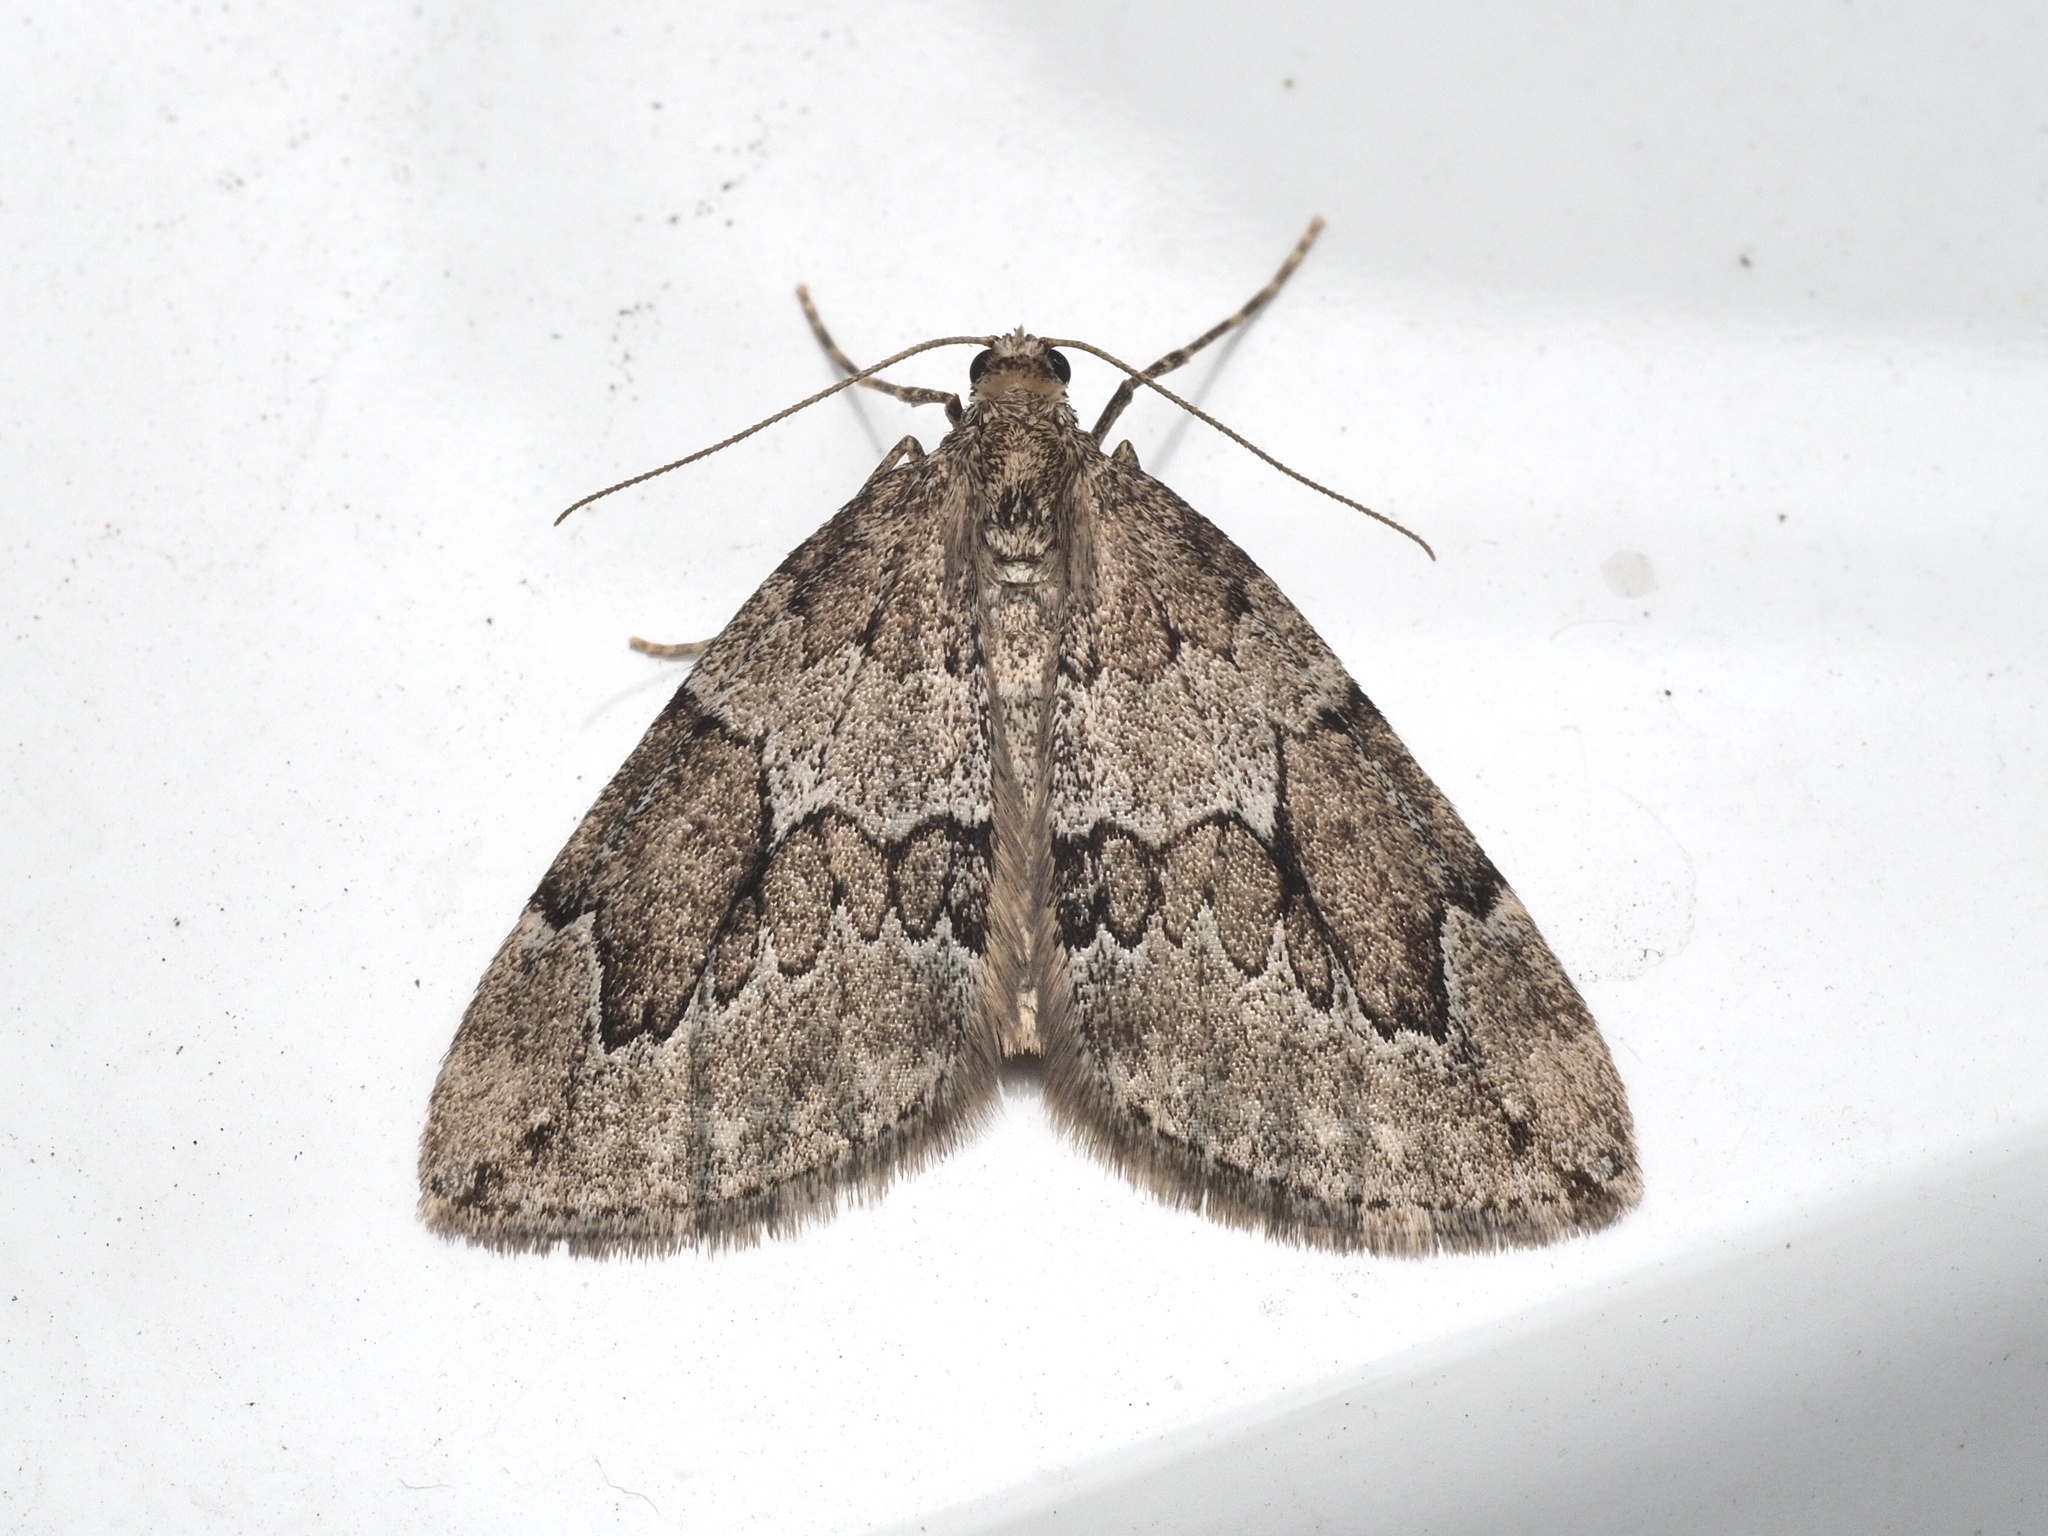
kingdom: Animalia
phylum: Arthropoda
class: Insecta
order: Lepidoptera
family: Geometridae
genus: Thera
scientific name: Thera juniperata
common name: Juniper carpet
